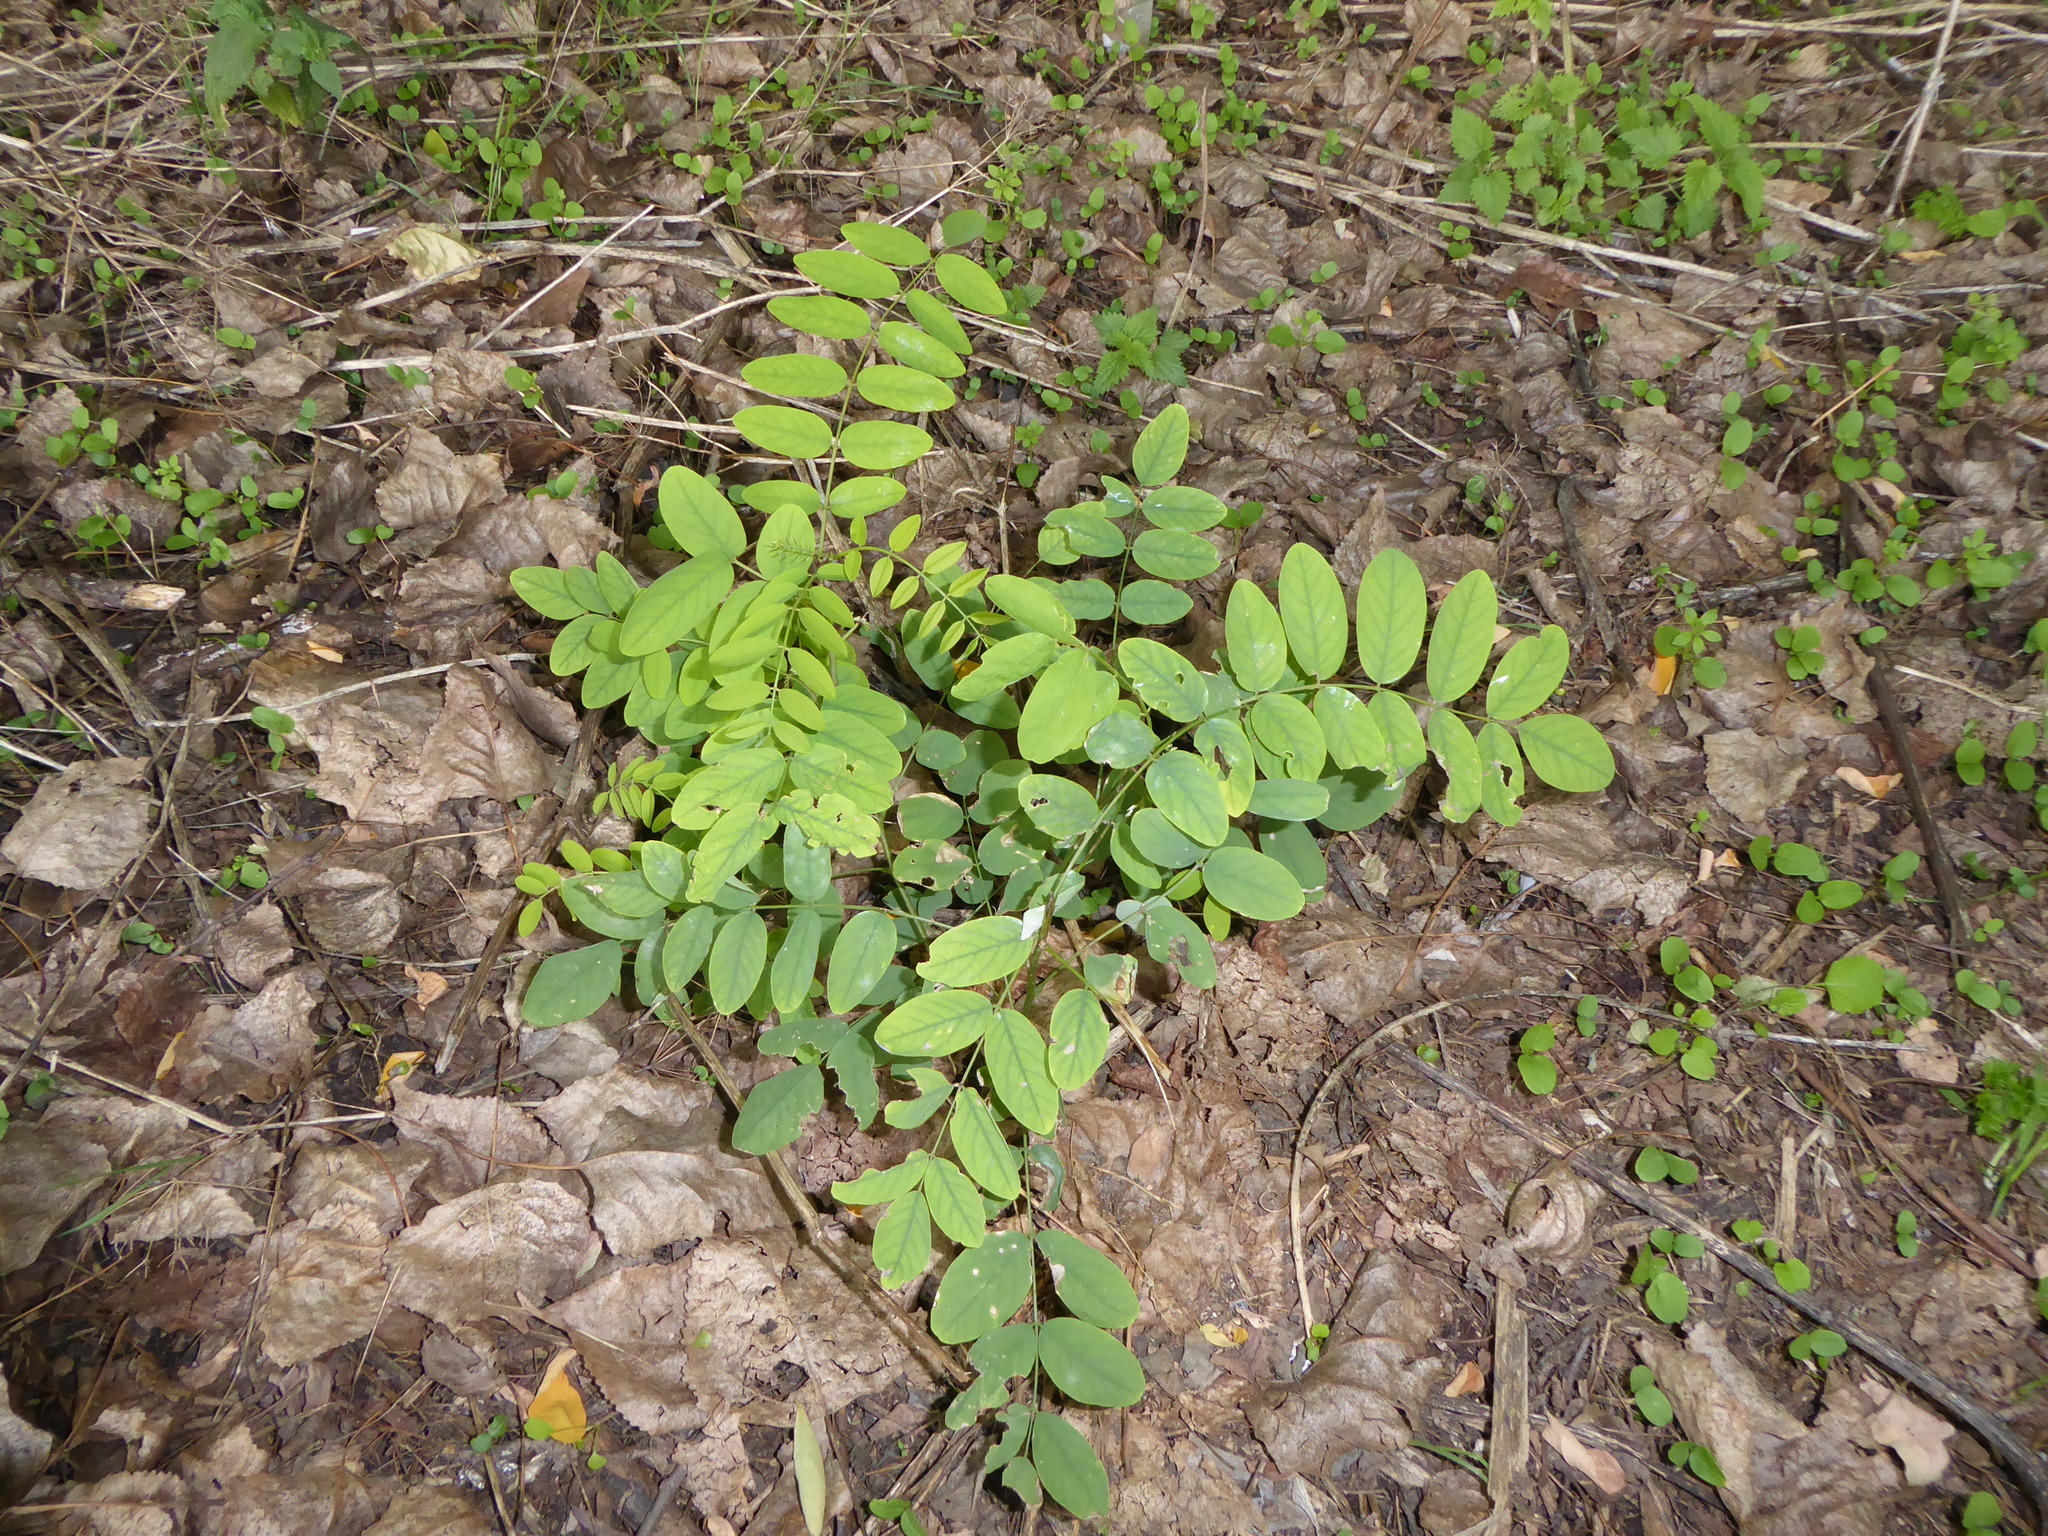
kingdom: Plantae
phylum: Tracheophyta
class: Magnoliopsida
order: Fabales
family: Fabaceae
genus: Robinia
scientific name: Robinia pseudoacacia
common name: Black locust
